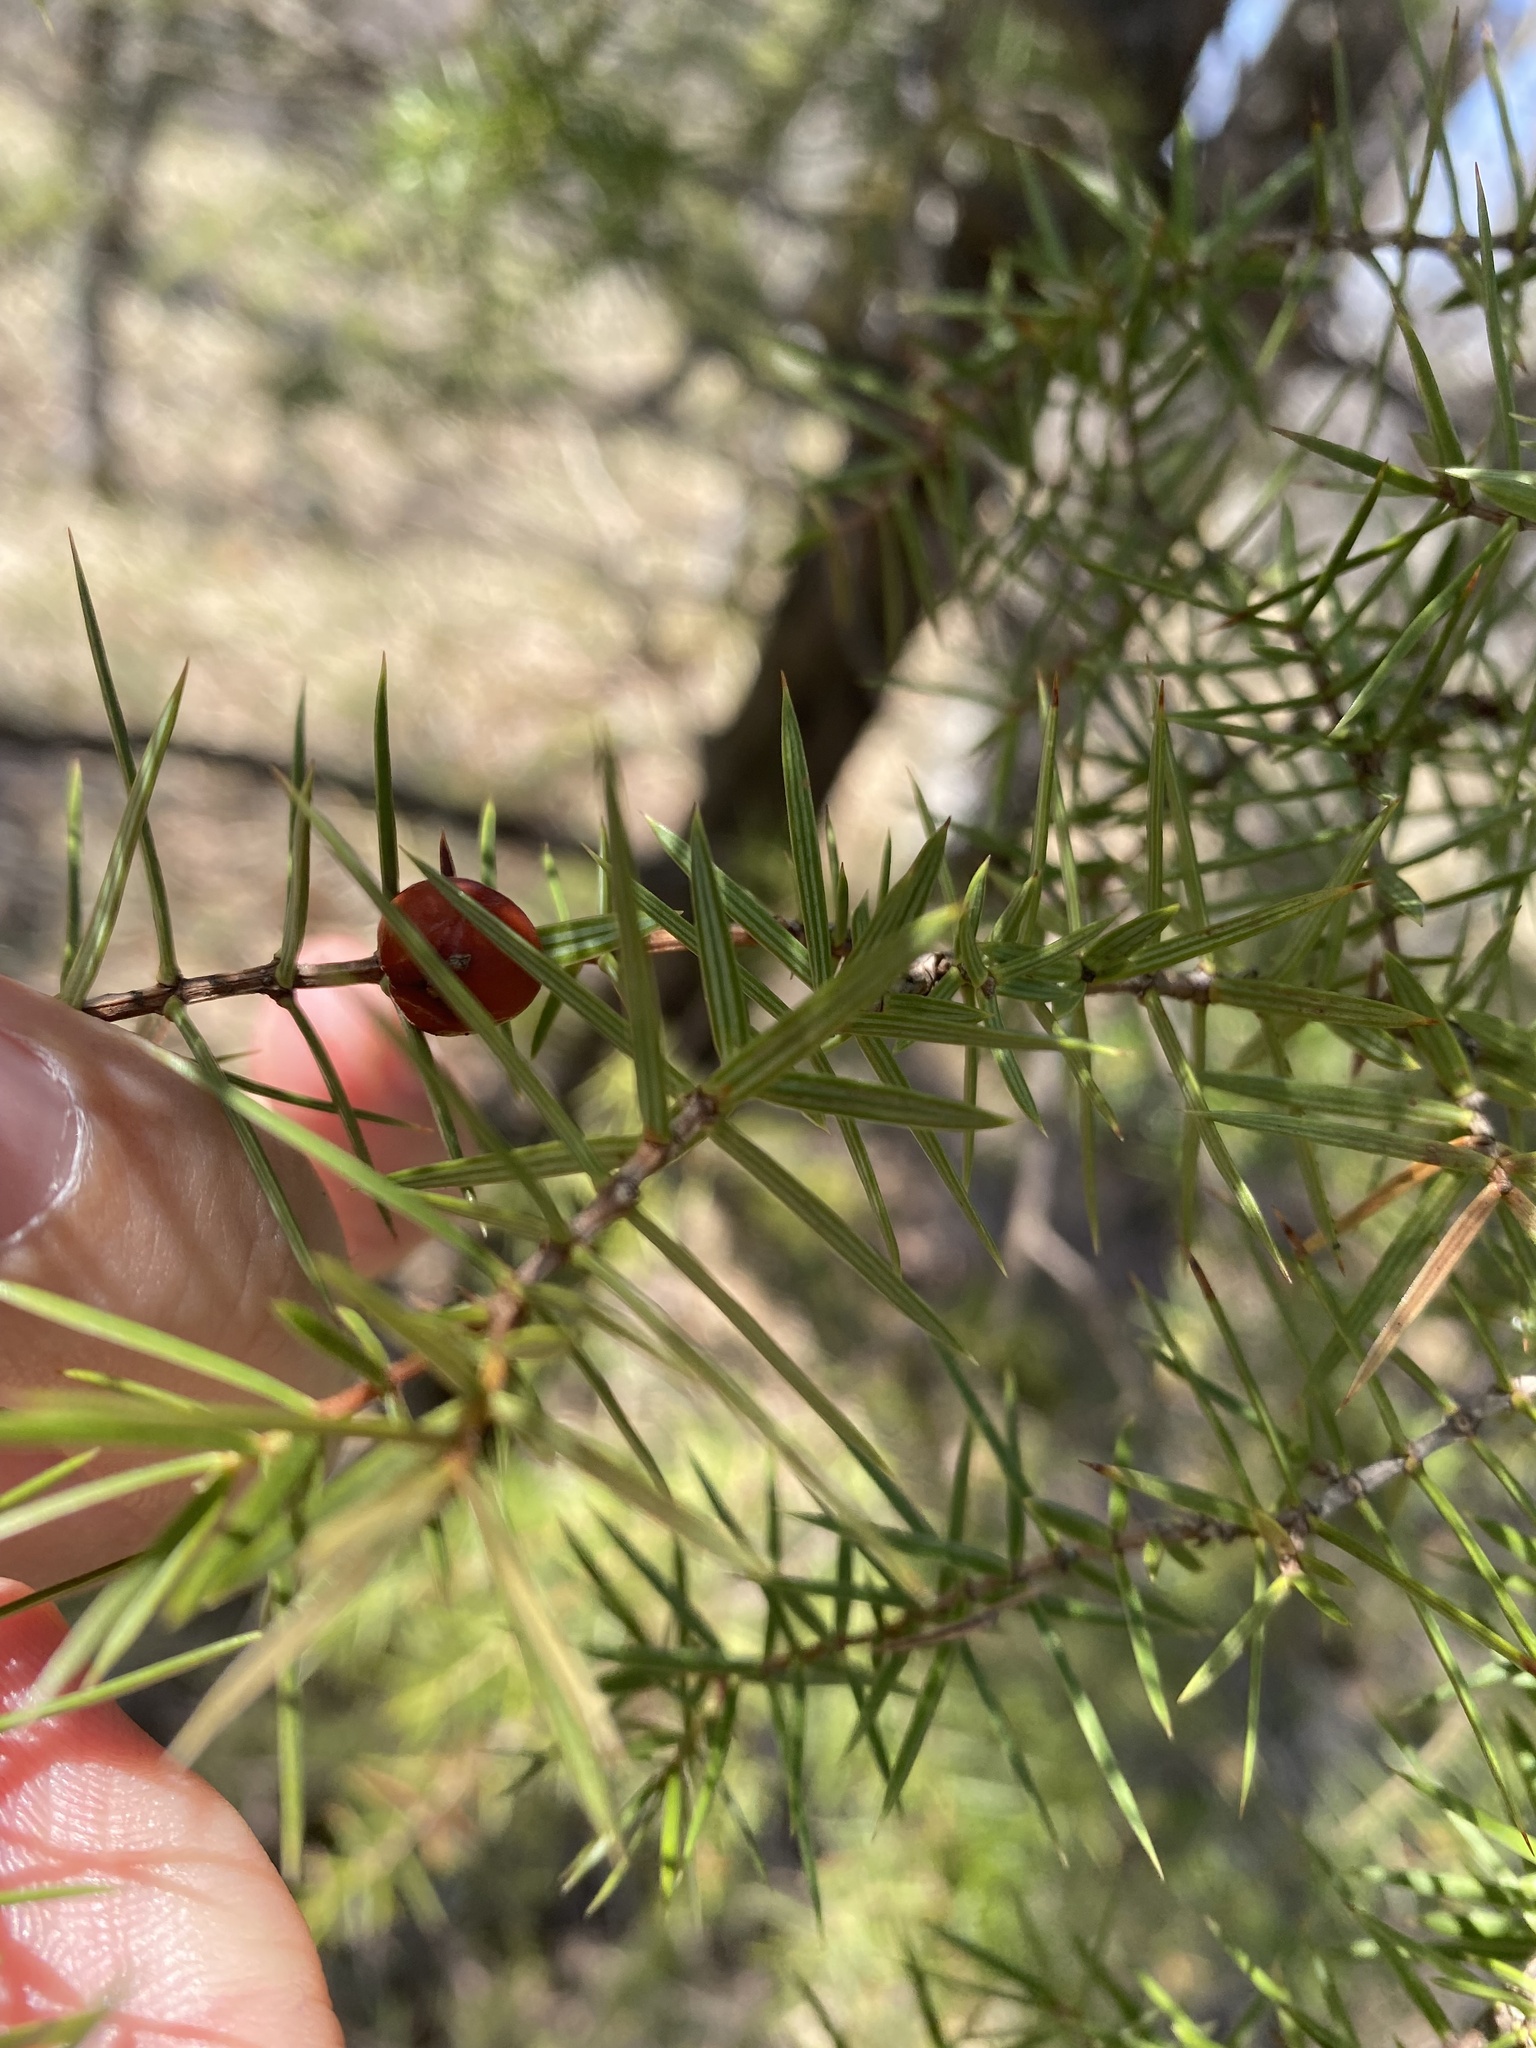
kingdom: Plantae
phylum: Tracheophyta
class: Pinopsida
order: Pinales
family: Cupressaceae
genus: Juniperus
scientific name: Juniperus oxycedrus
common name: Prickly juniper
